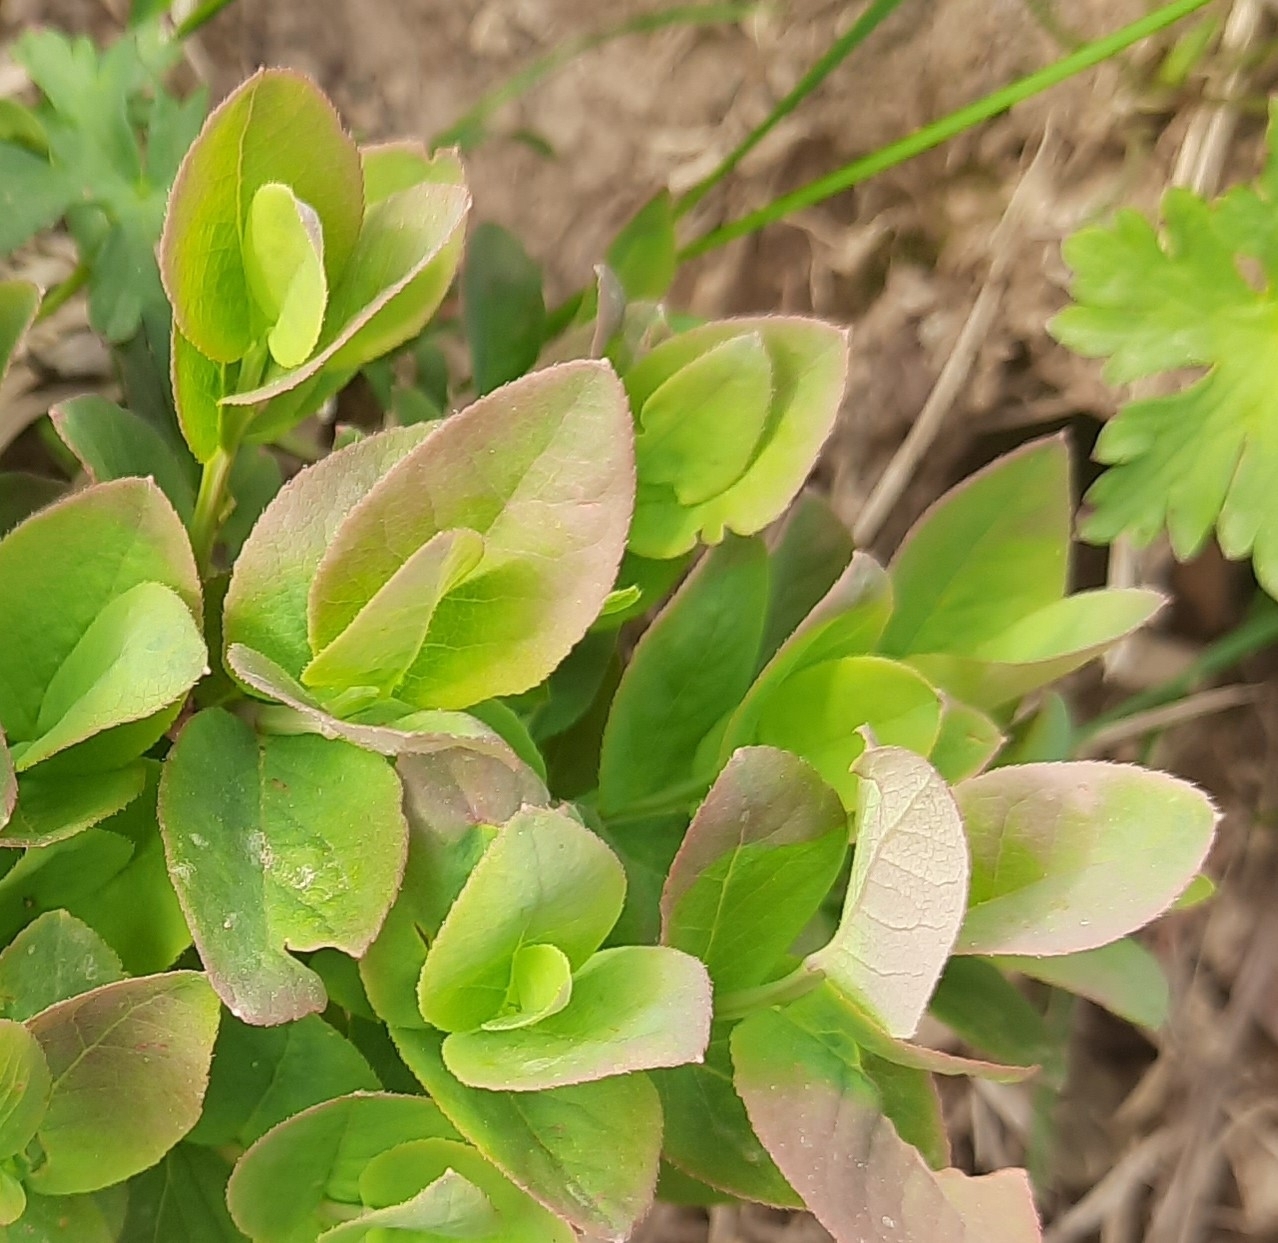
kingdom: Plantae
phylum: Tracheophyta
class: Magnoliopsida
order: Ericales
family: Ericaceae
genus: Vaccinium
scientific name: Vaccinium myrtillus
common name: Bilberry
